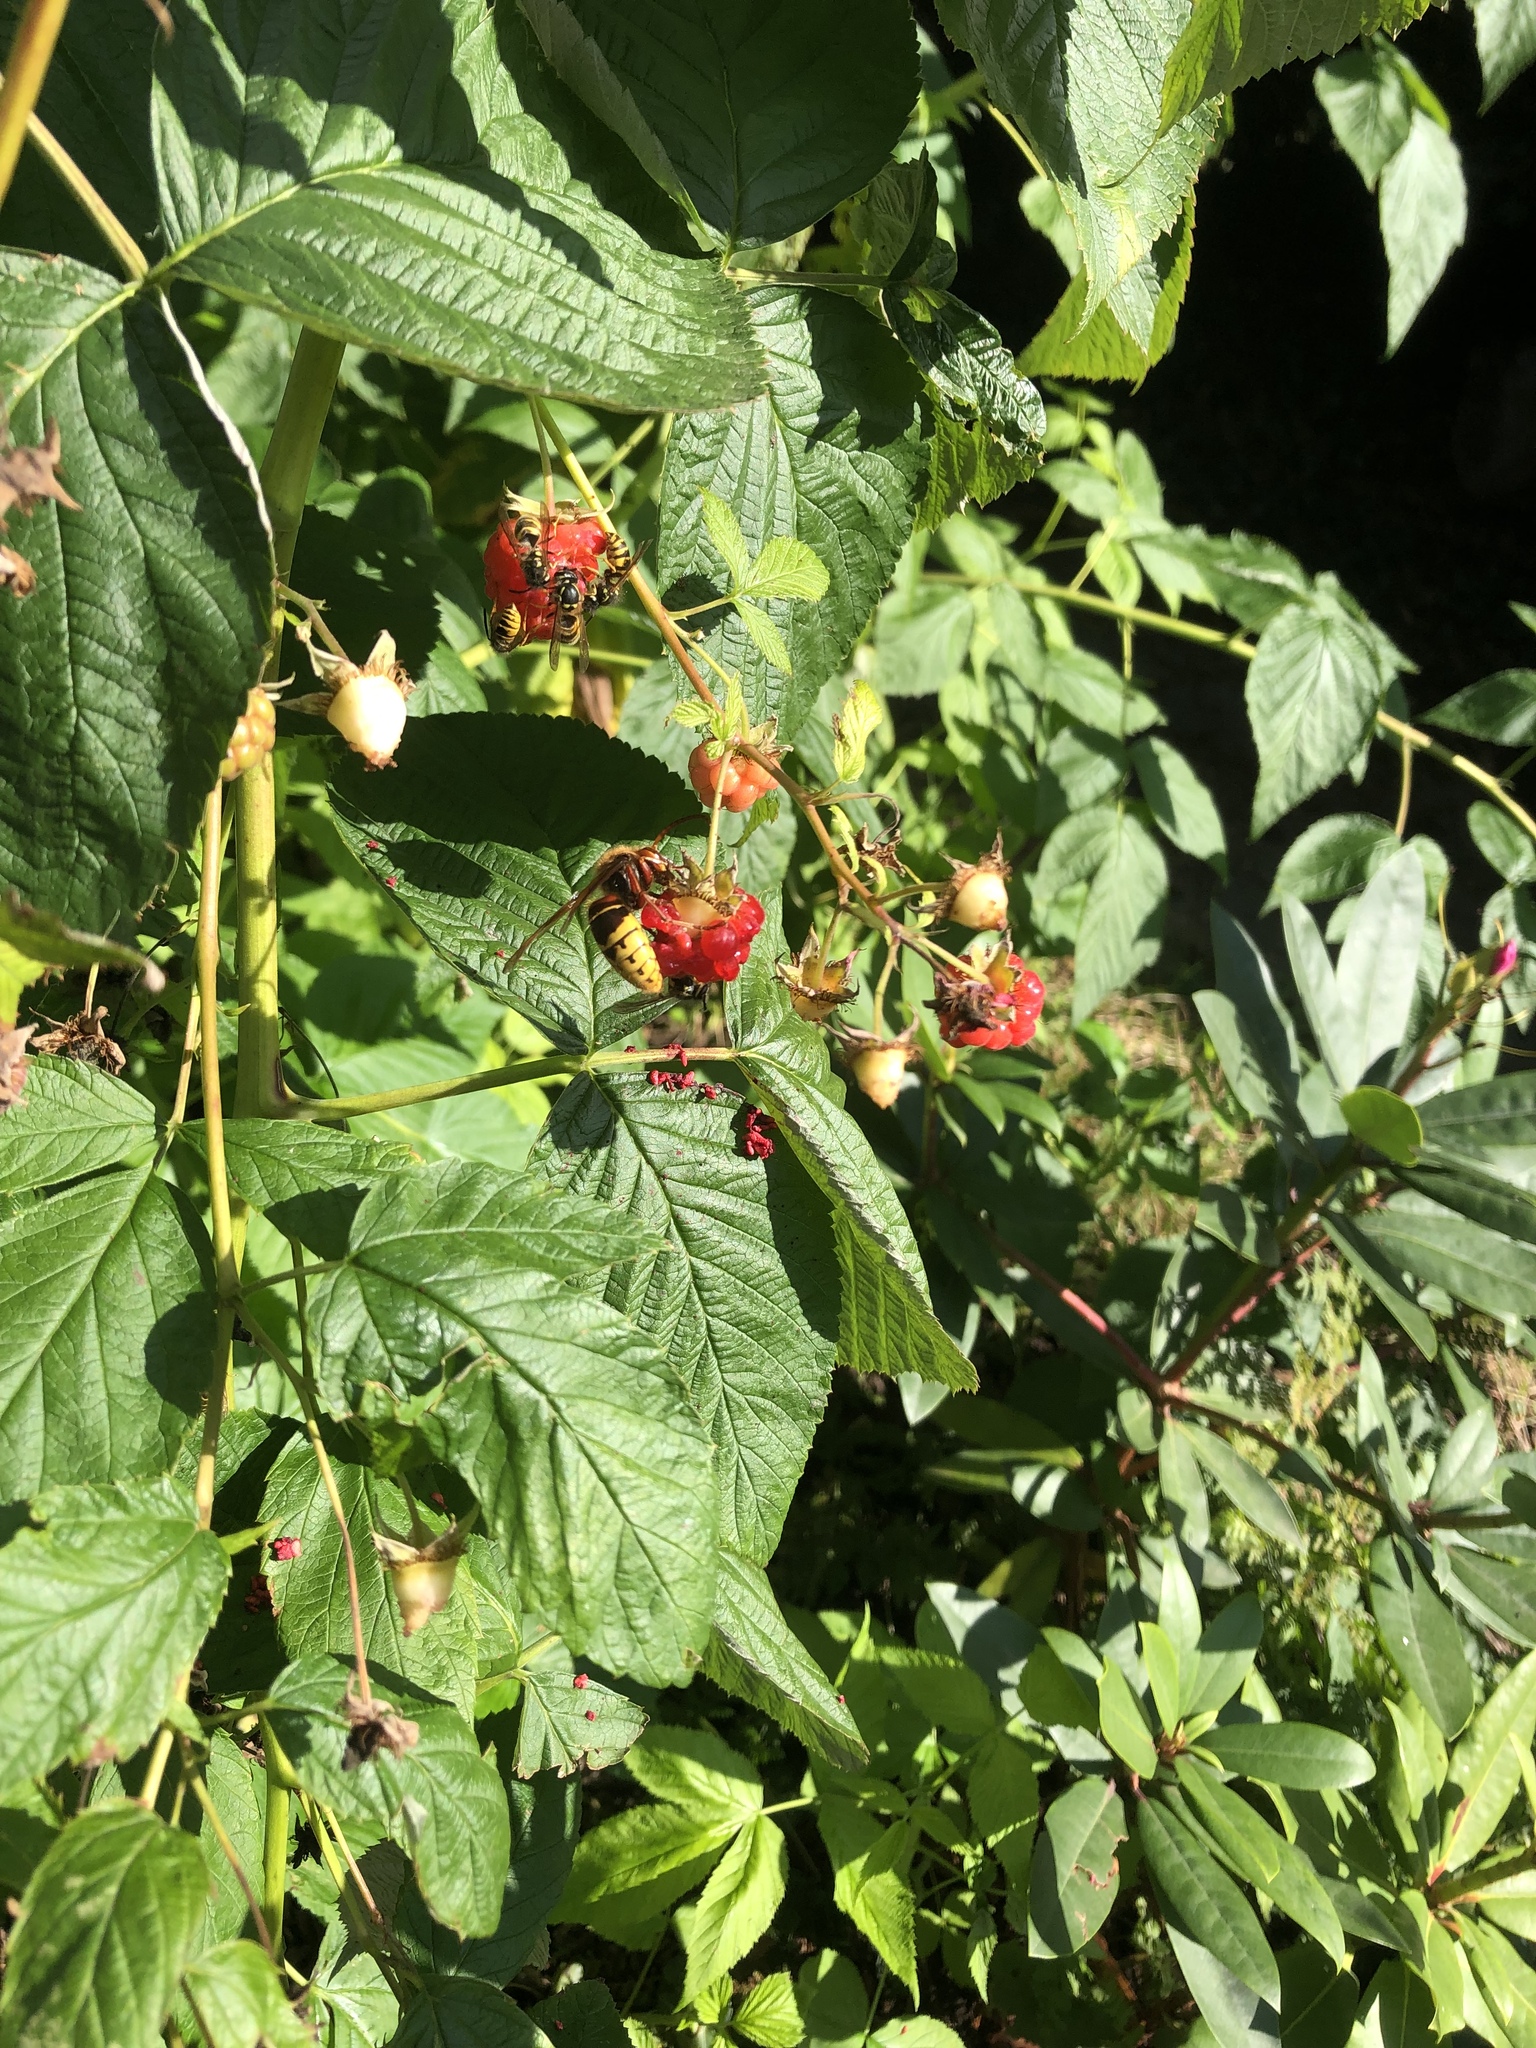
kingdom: Animalia
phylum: Arthropoda
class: Insecta
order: Hymenoptera
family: Vespidae
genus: Vespa
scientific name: Vespa crabro
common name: Hornet
